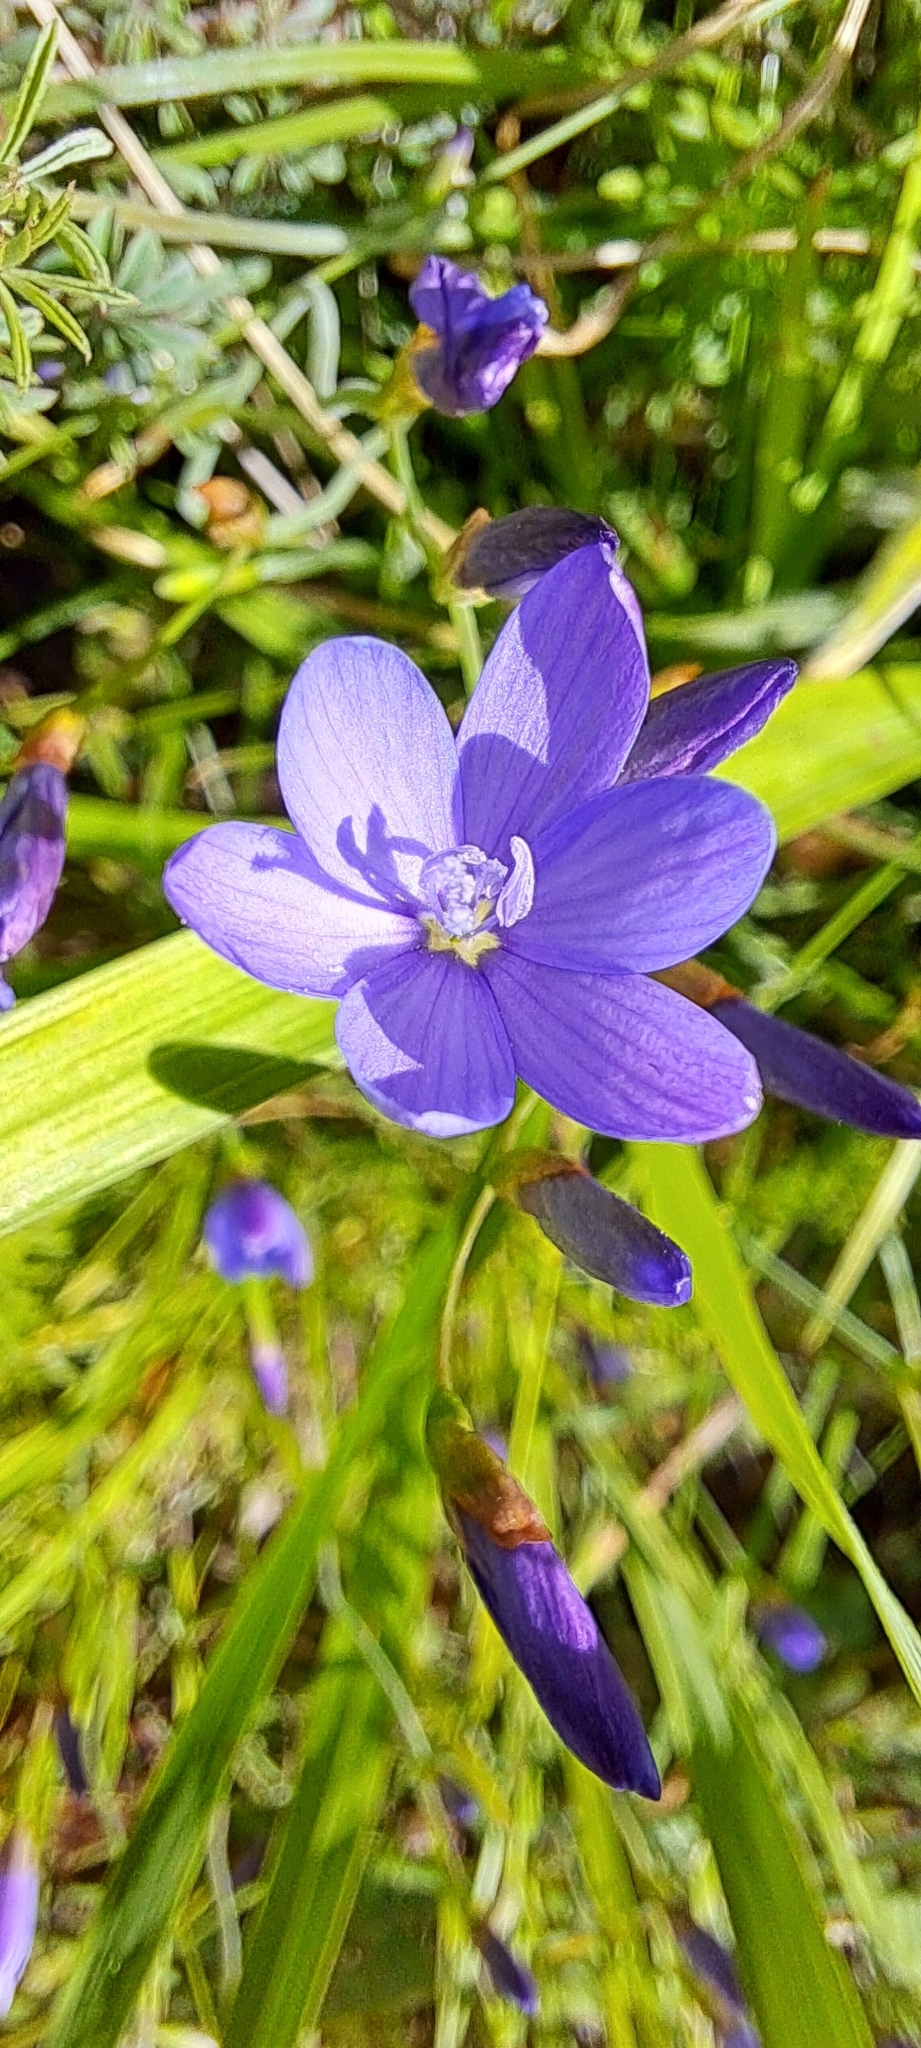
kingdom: Plantae
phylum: Tracheophyta
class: Liliopsida
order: Asparagales
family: Iridaceae
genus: Geissorhiza
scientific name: Geissorhiza aspera
